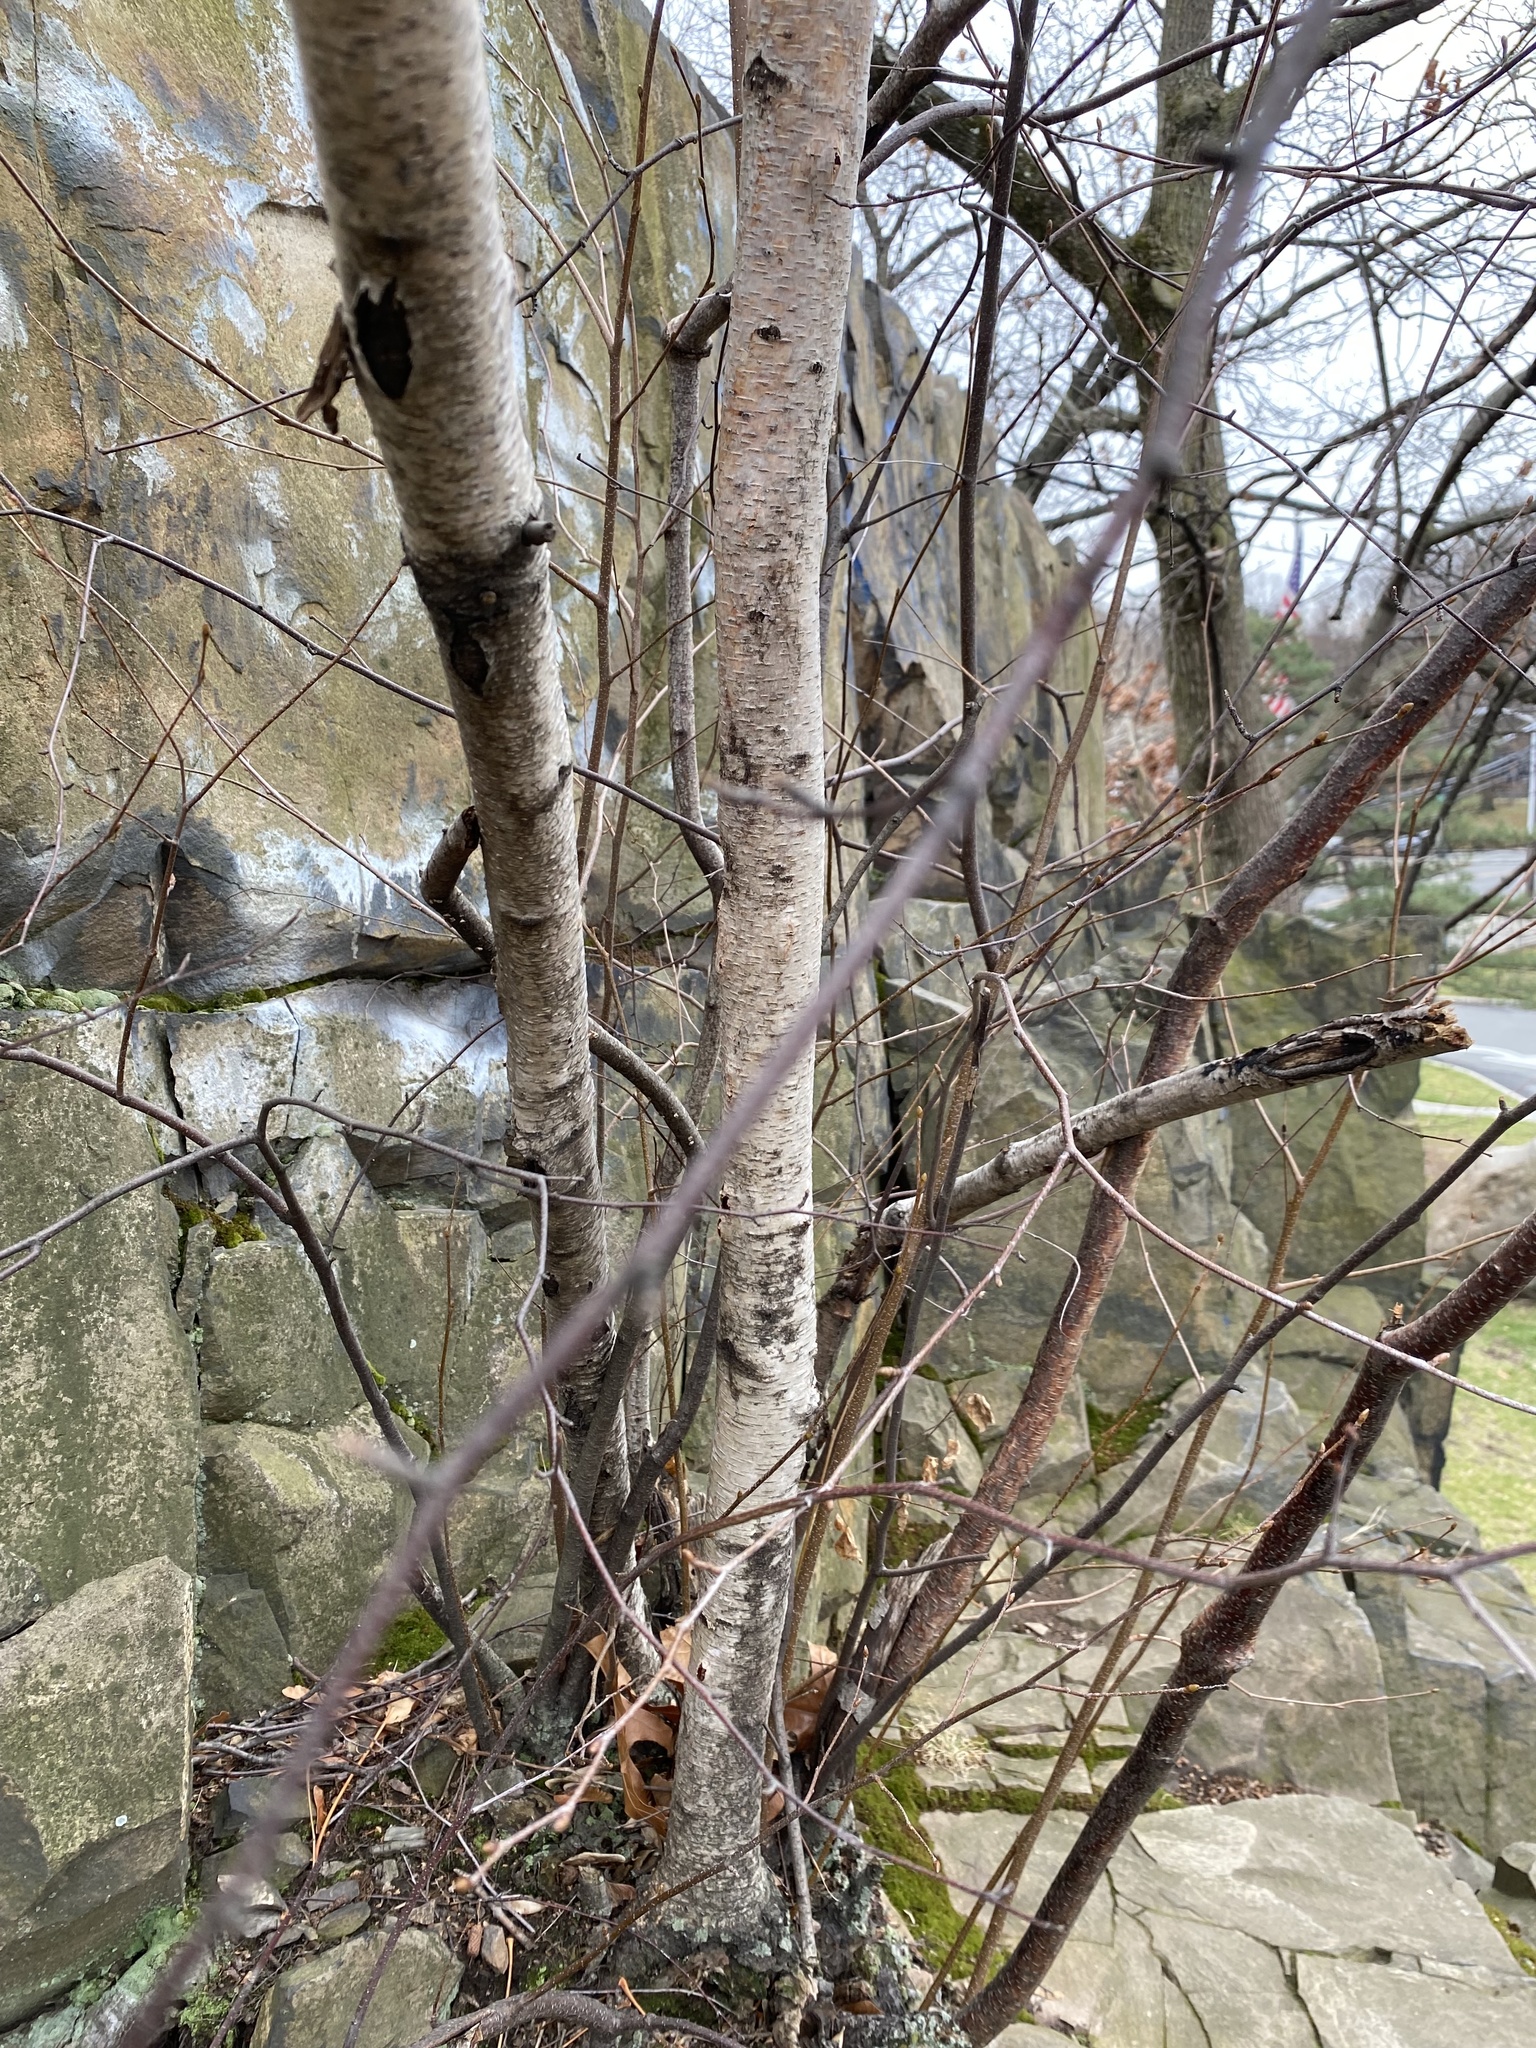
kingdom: Plantae
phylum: Tracheophyta
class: Magnoliopsida
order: Fagales
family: Betulaceae
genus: Betula
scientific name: Betula populifolia
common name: Fire birch
